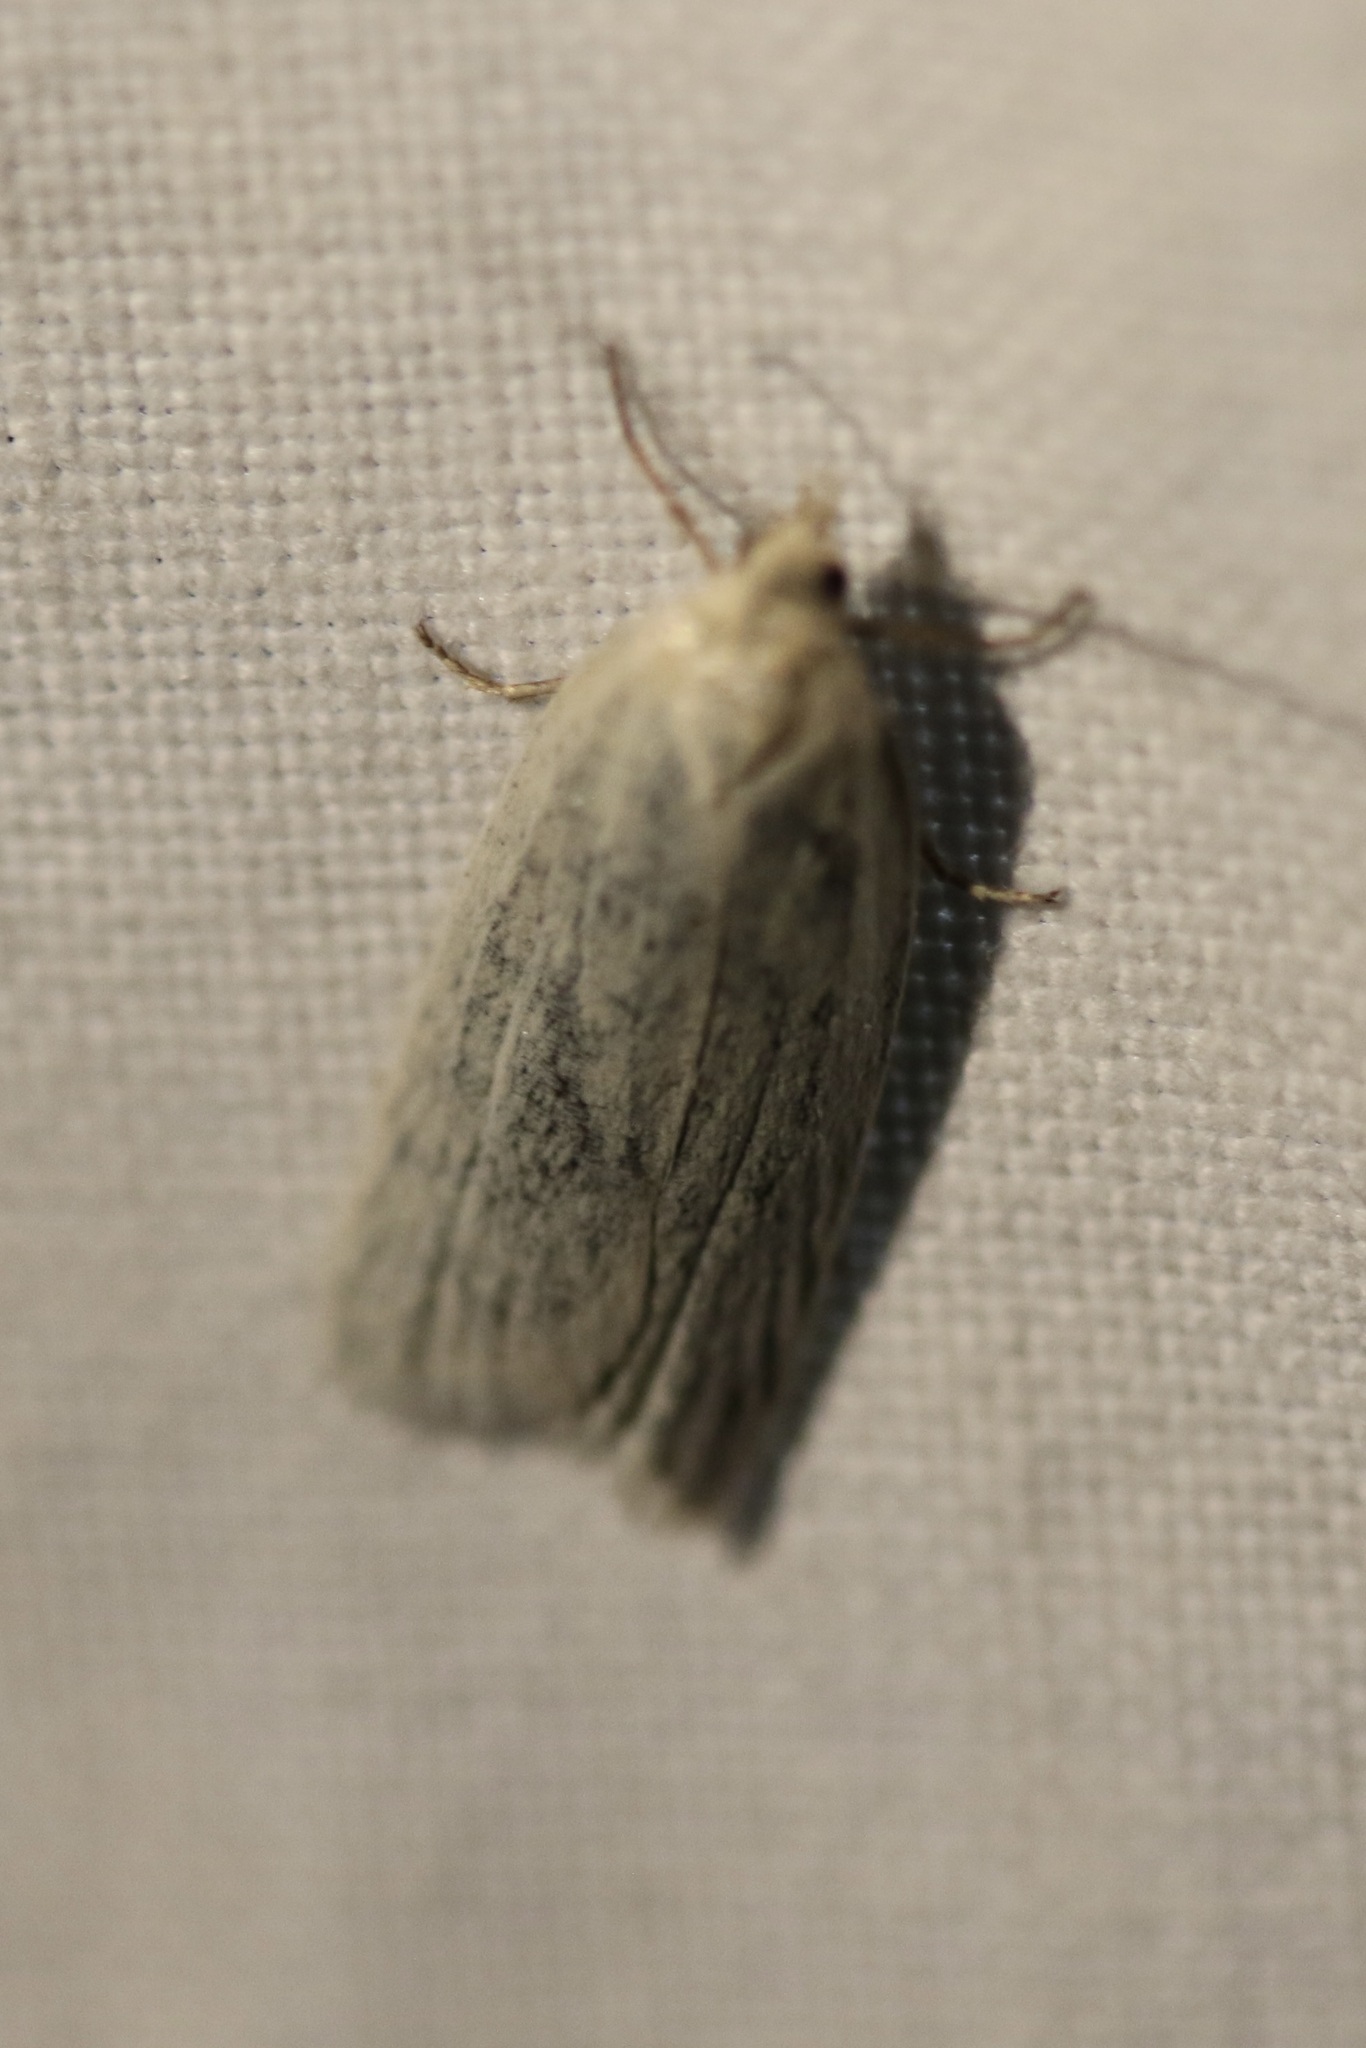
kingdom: Animalia
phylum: Arthropoda
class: Insecta
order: Lepidoptera
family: Tortricidae
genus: Eana
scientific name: Eana argentana
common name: Silver shade
